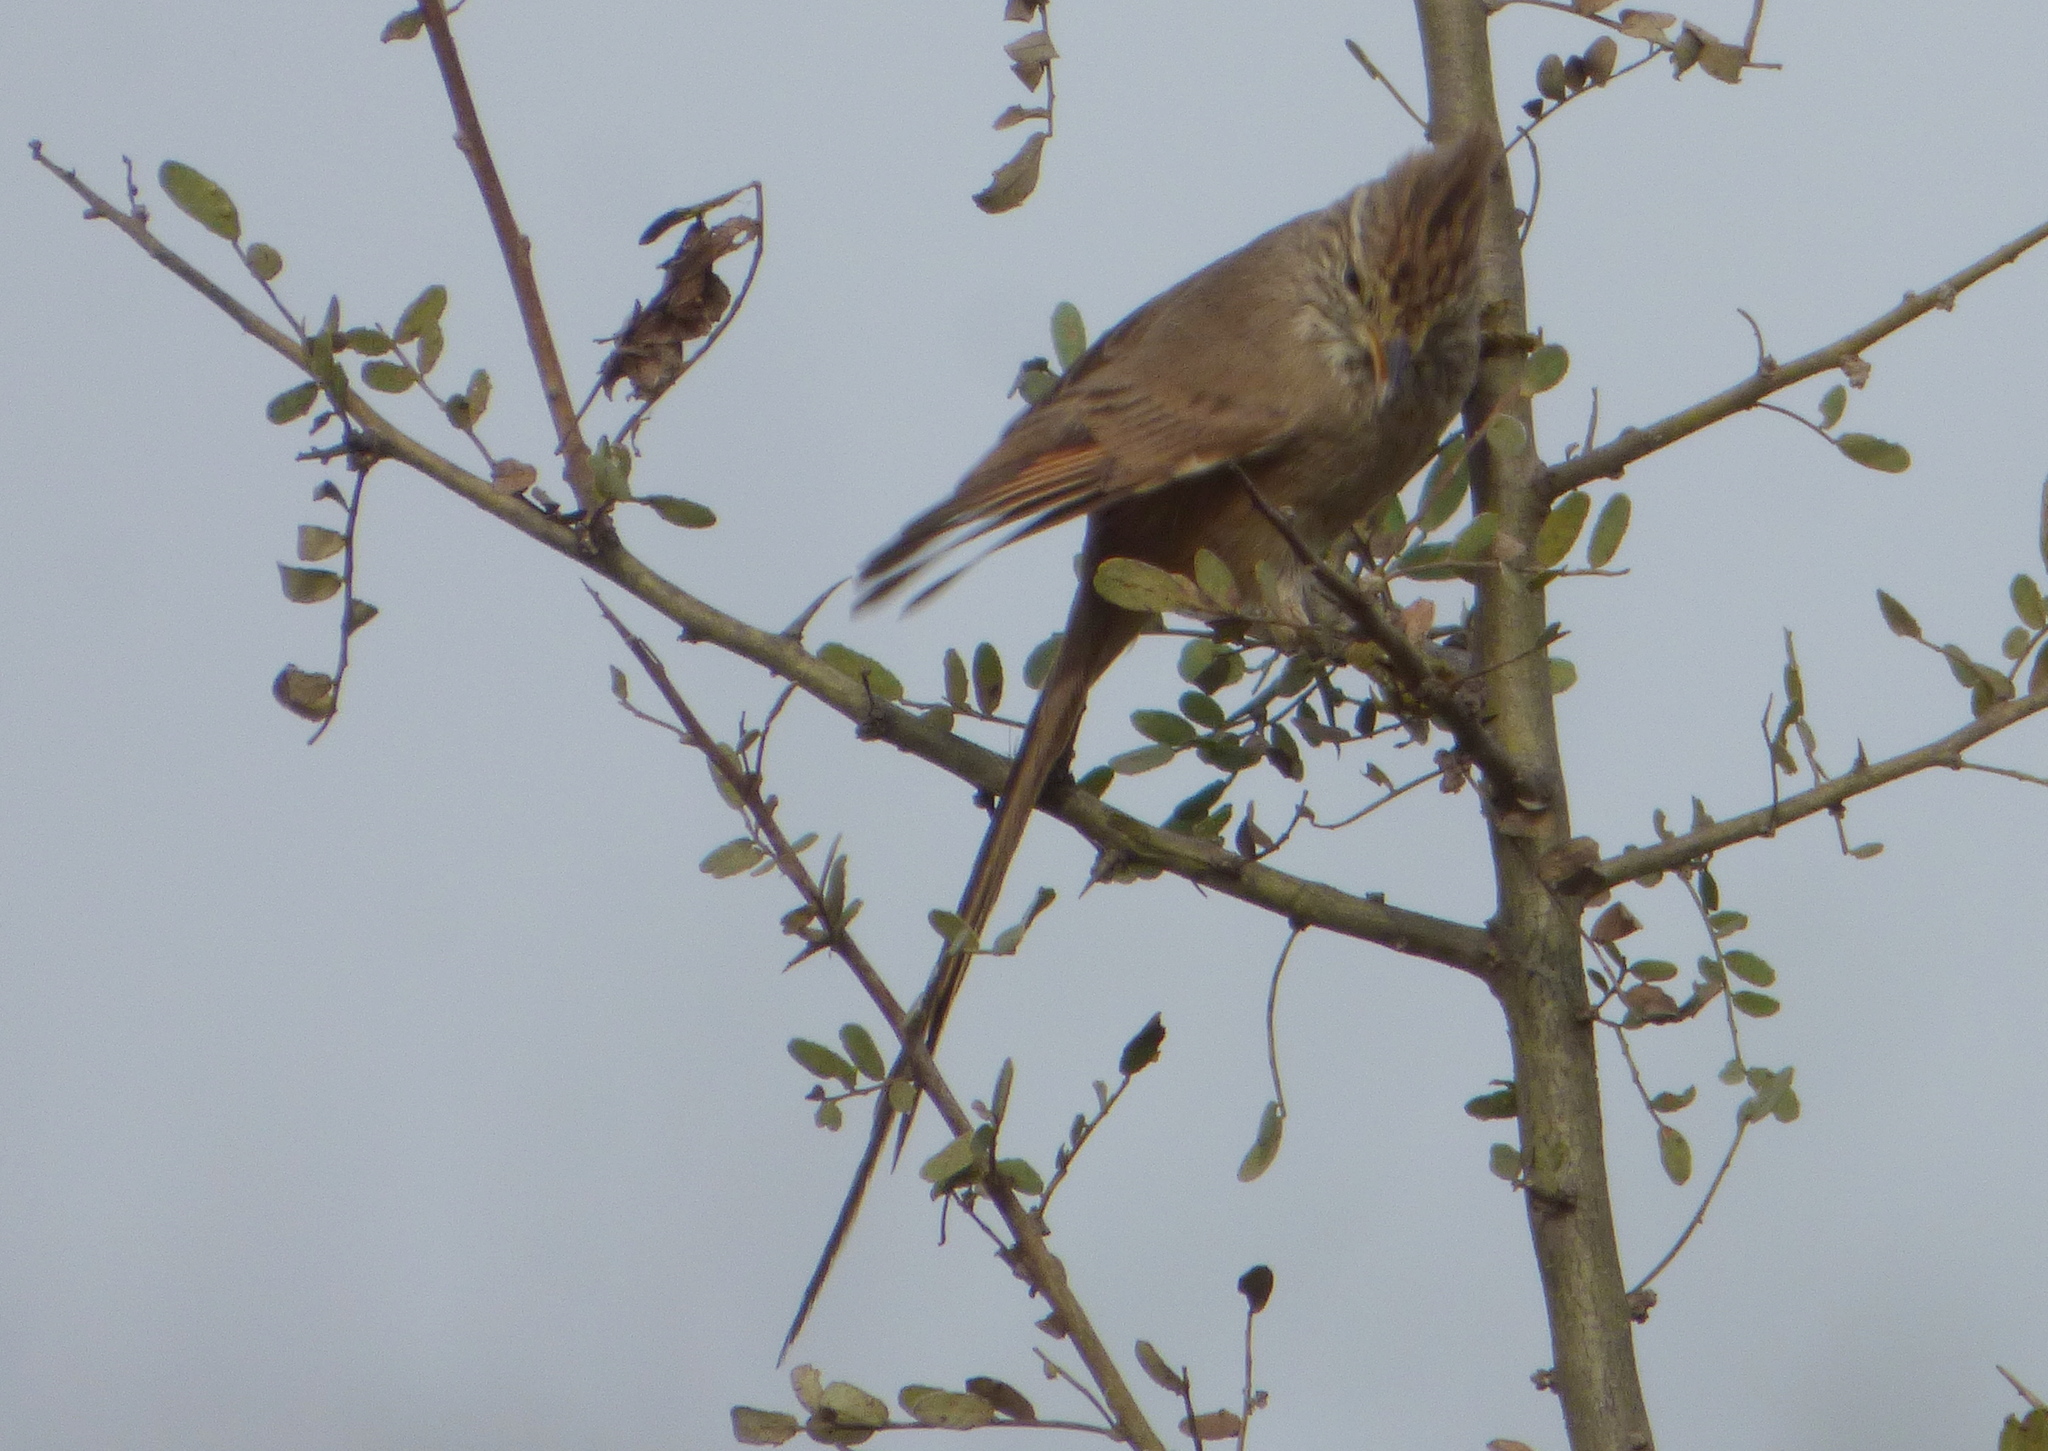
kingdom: Animalia
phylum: Chordata
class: Aves
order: Passeriformes
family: Furnariidae
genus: Leptasthenura
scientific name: Leptasthenura platensis
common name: Tufted tit-spinetail
